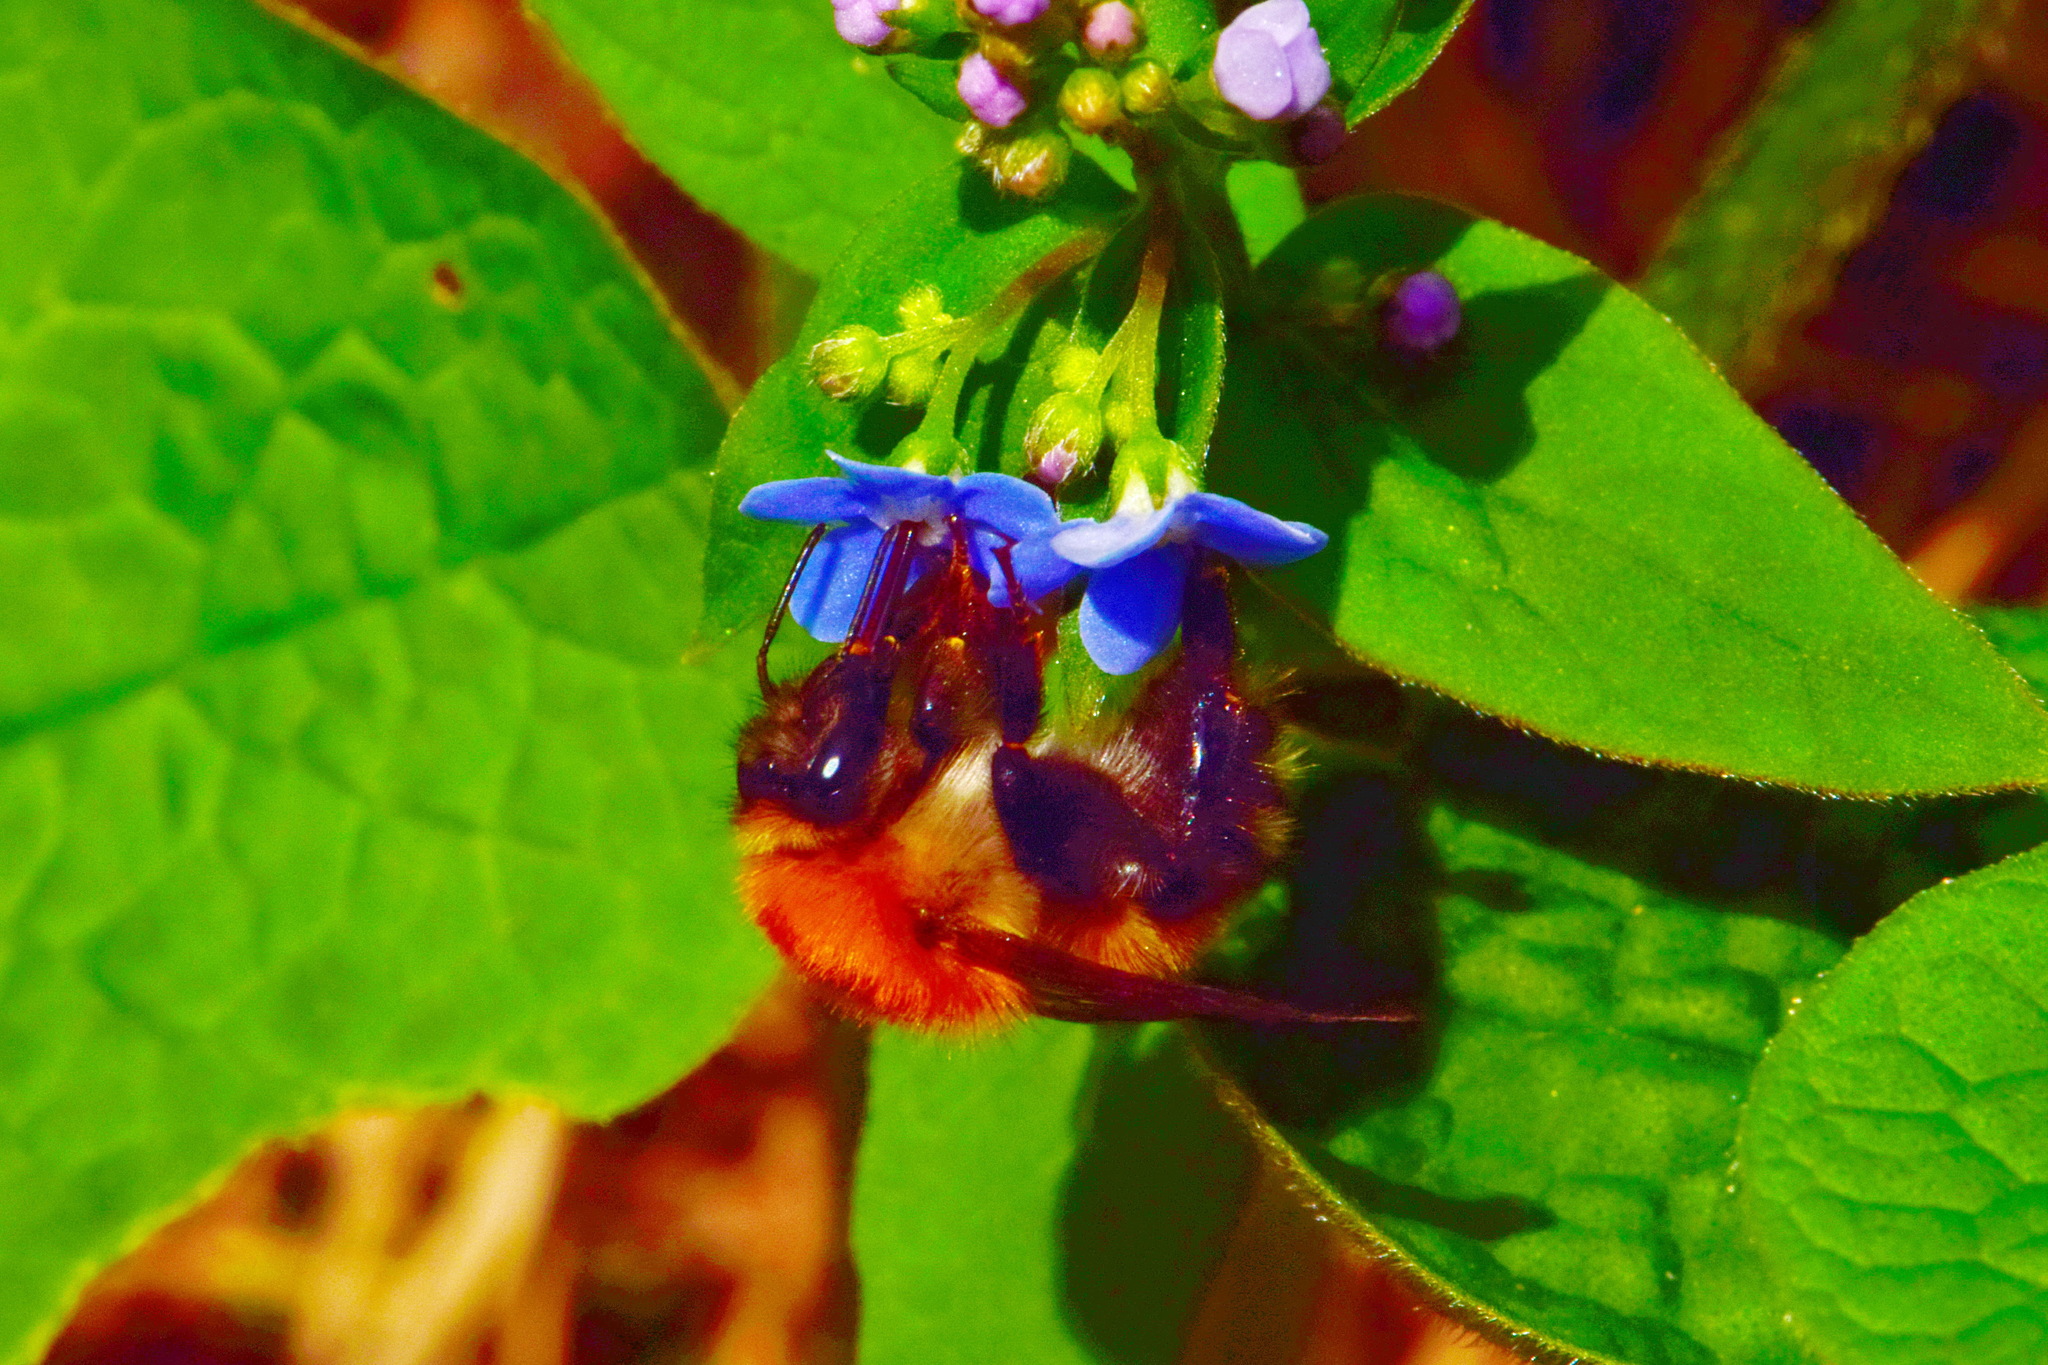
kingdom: Animalia
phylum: Arthropoda
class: Insecta
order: Hymenoptera
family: Apidae
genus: Bombus
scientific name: Bombus schrencki
